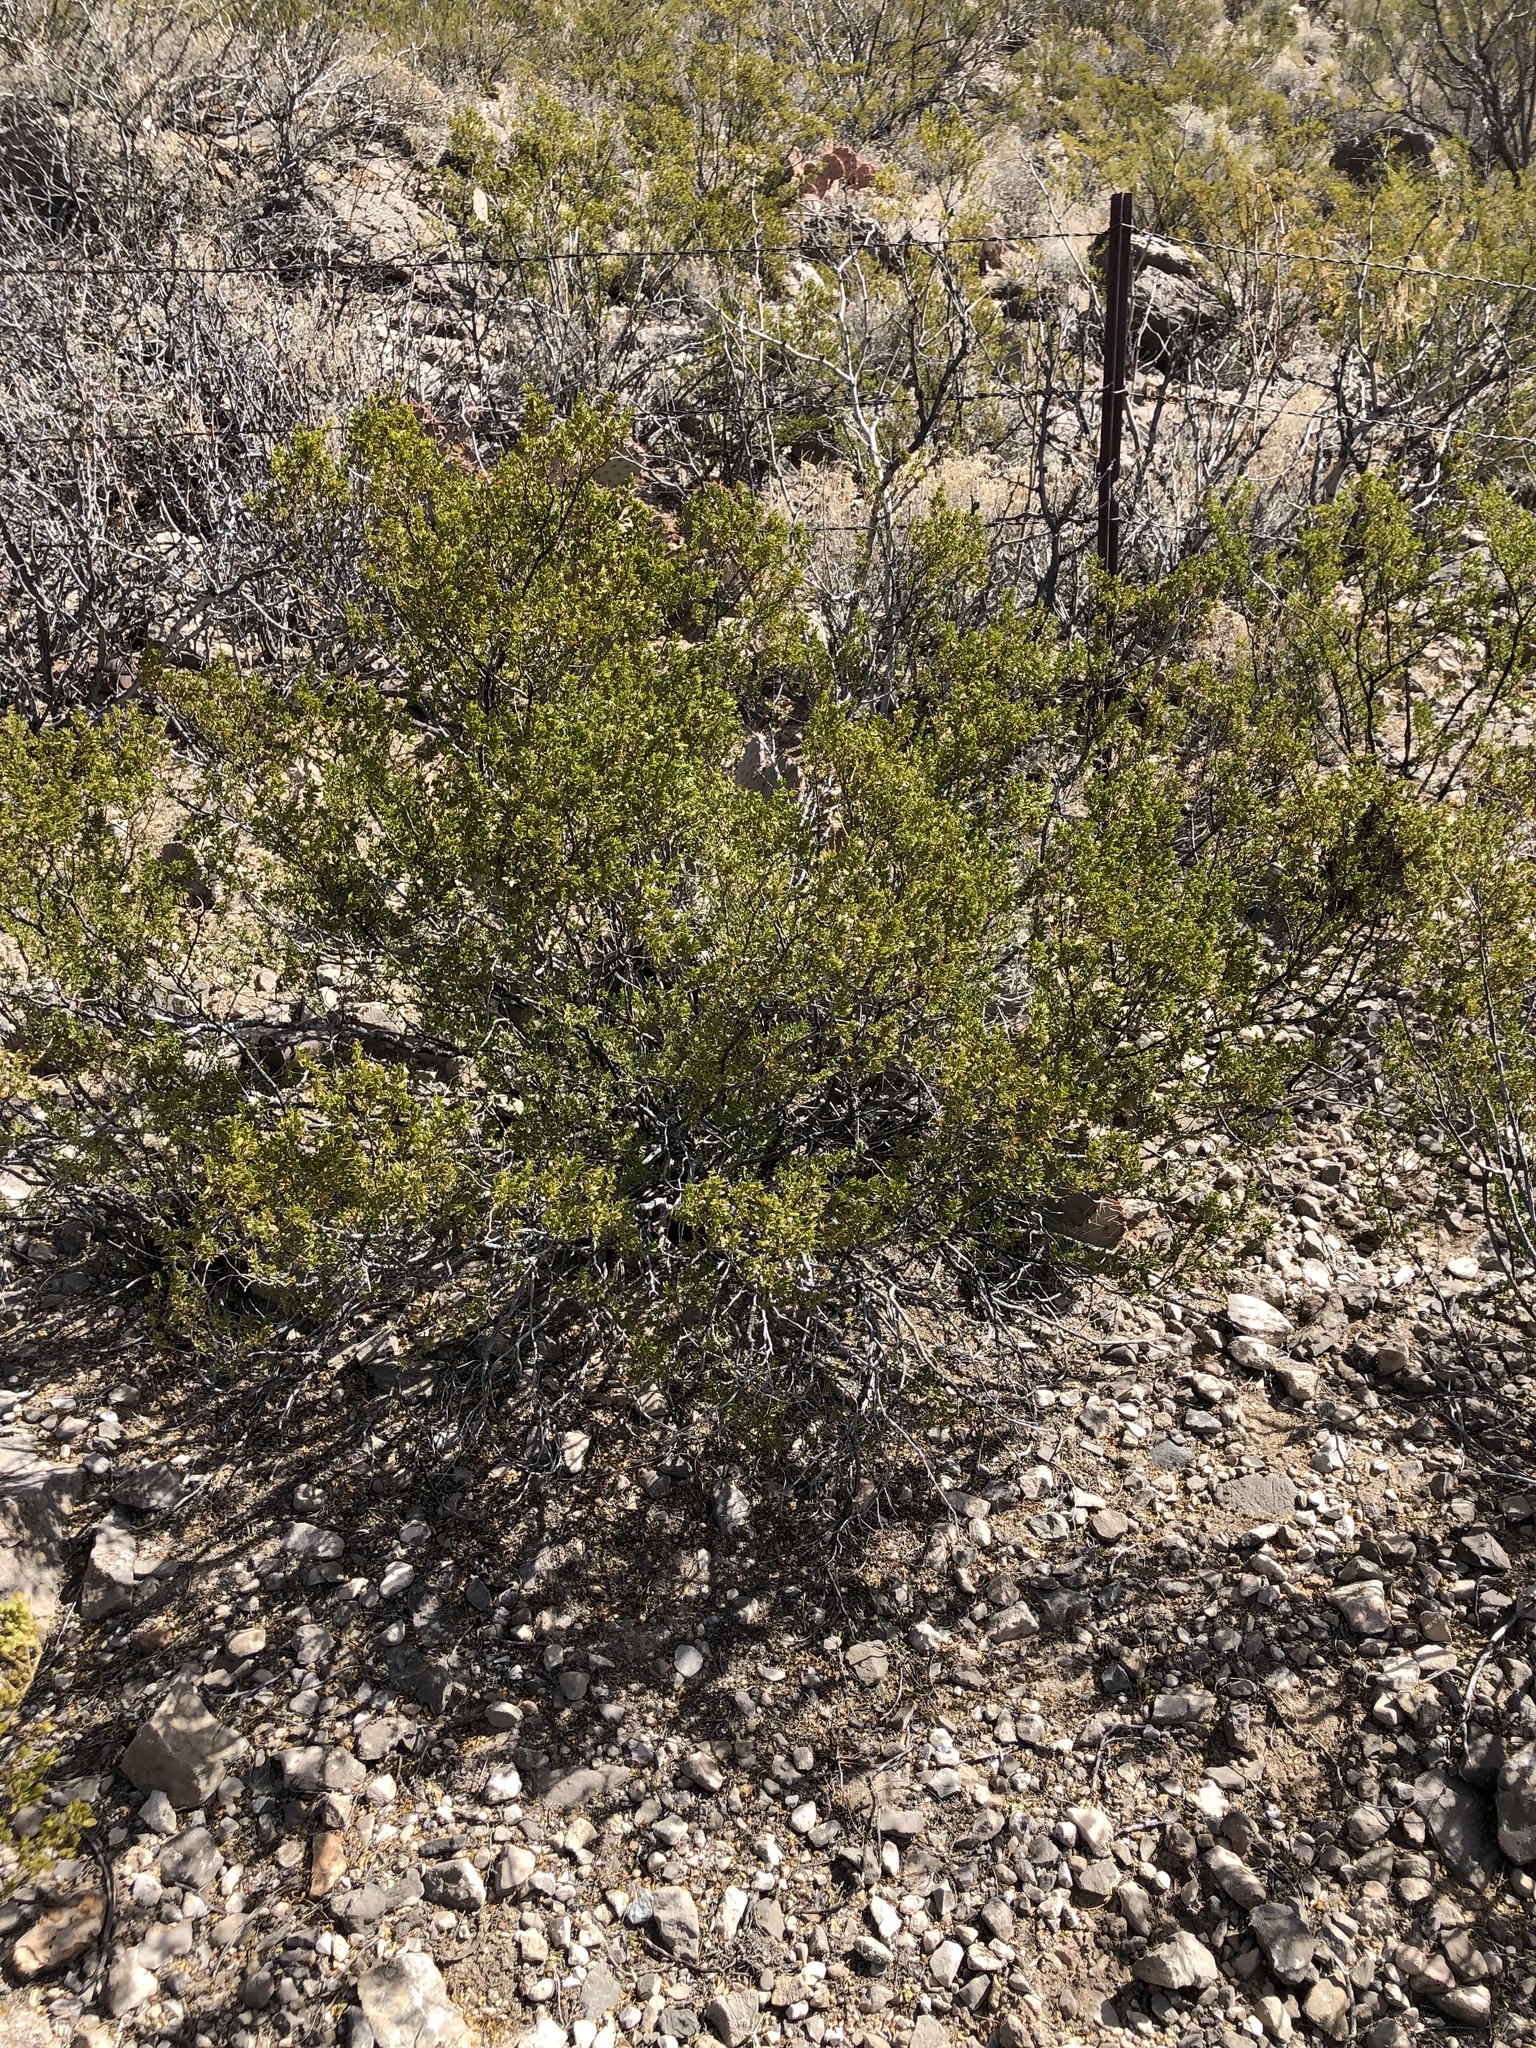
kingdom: Plantae
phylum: Tracheophyta
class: Magnoliopsida
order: Zygophyllales
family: Zygophyllaceae
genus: Larrea
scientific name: Larrea tridentata
